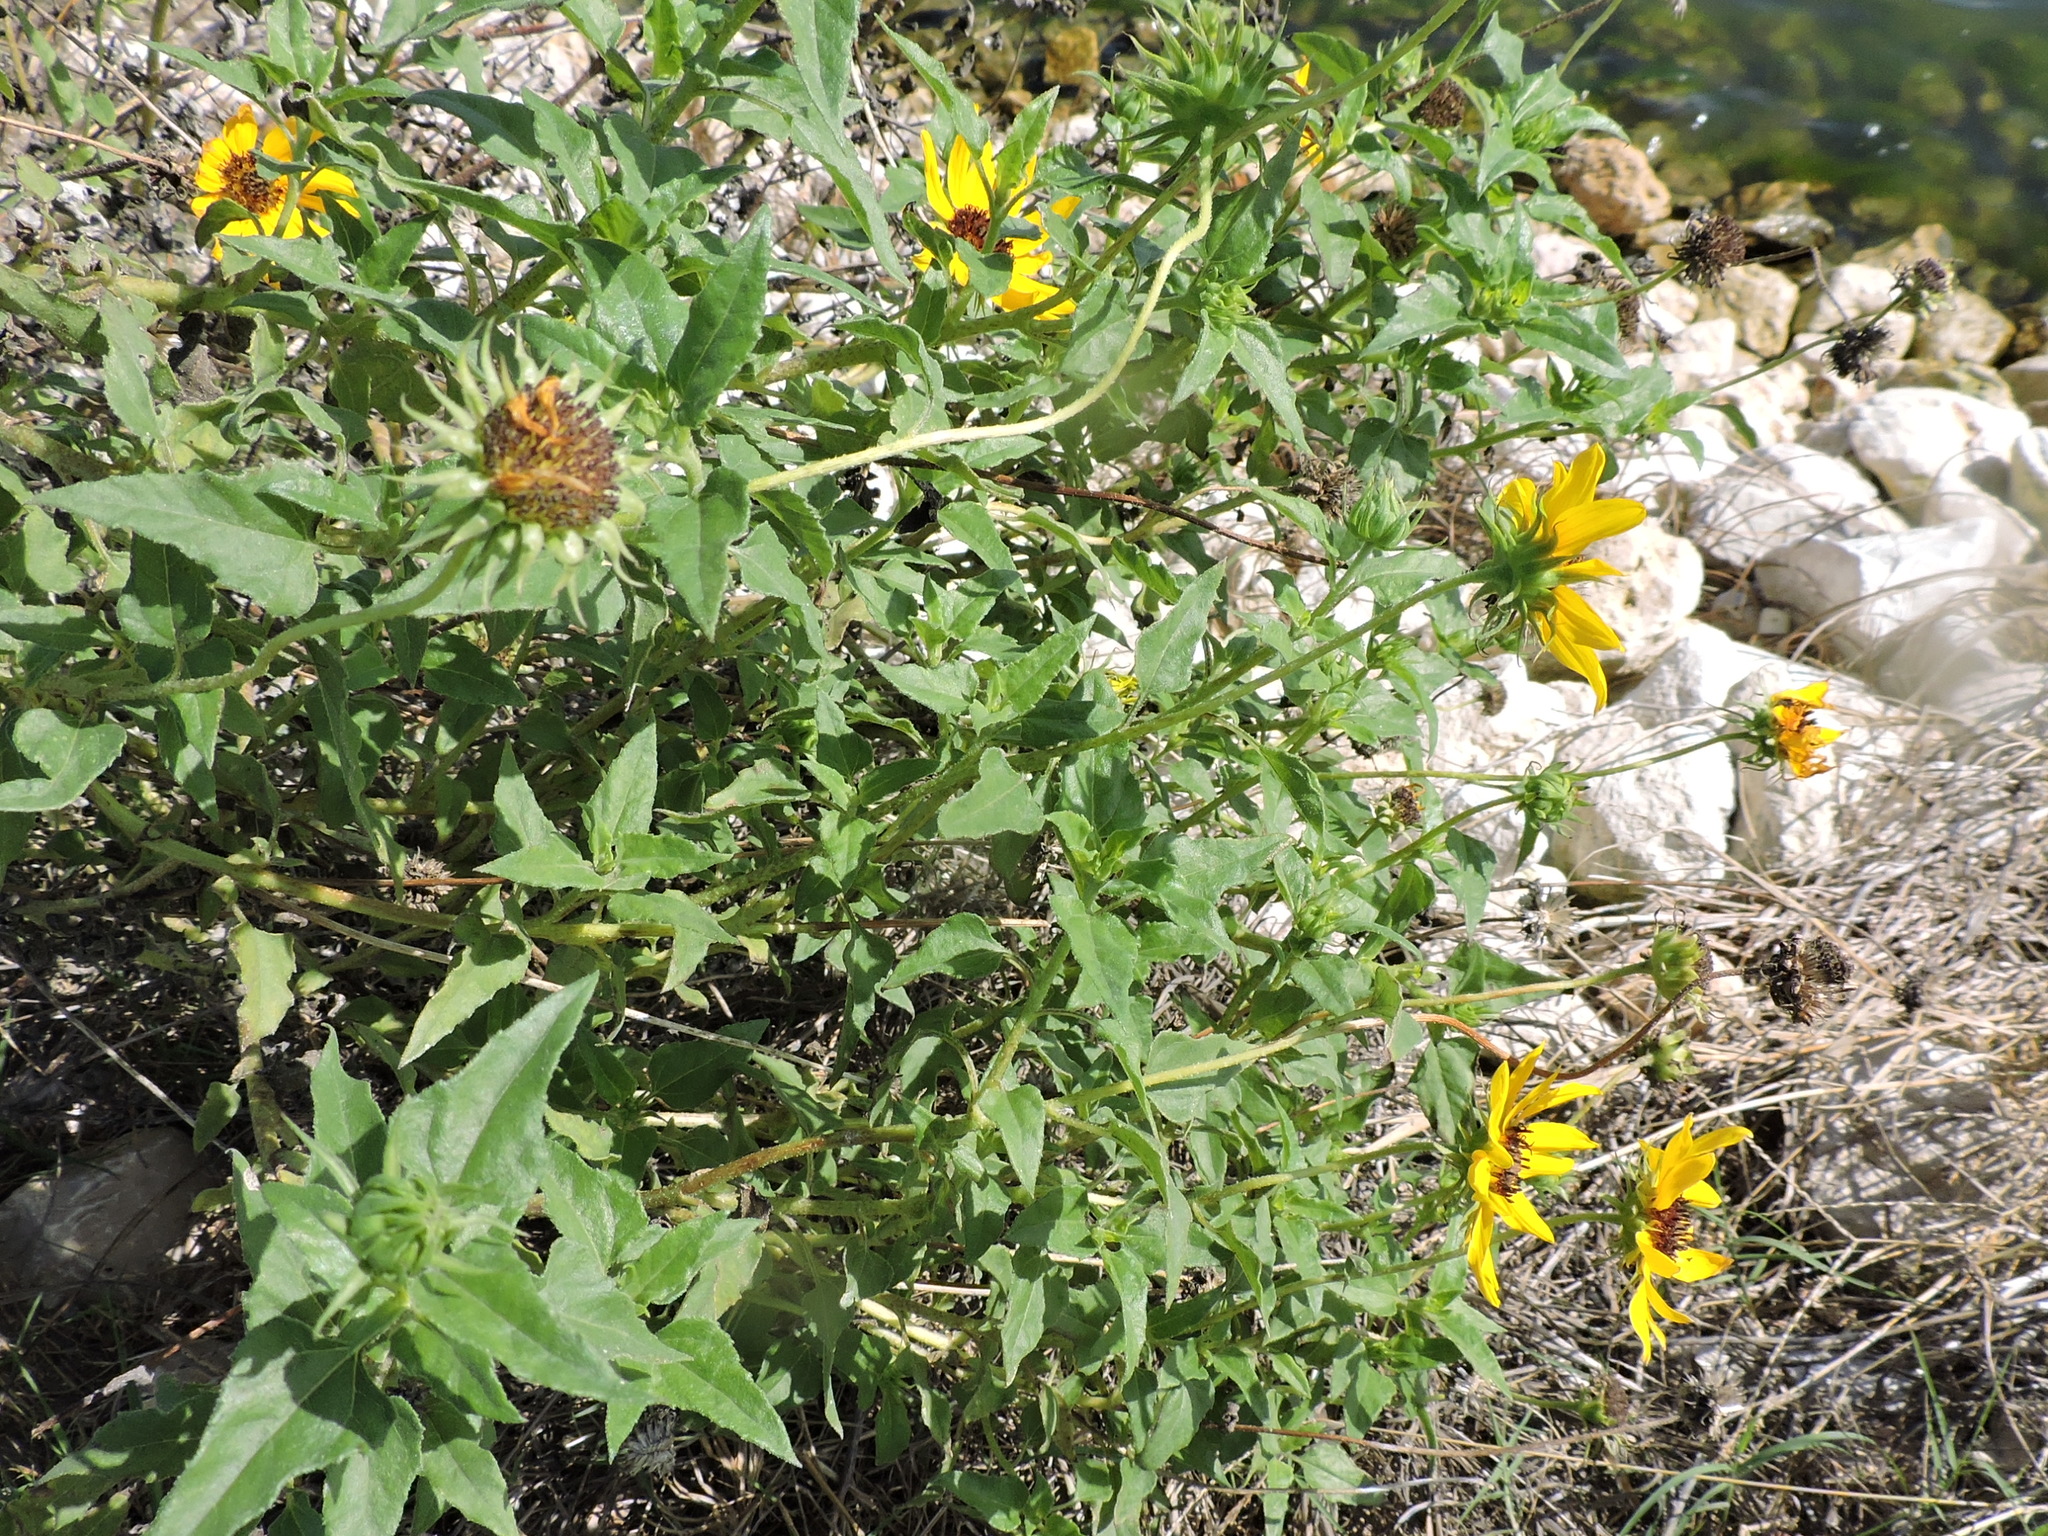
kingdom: Plantae
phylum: Tracheophyta
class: Magnoliopsida
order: Asterales
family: Asteraceae
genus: Helianthus
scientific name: Helianthus debilis
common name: Weak sunflower
